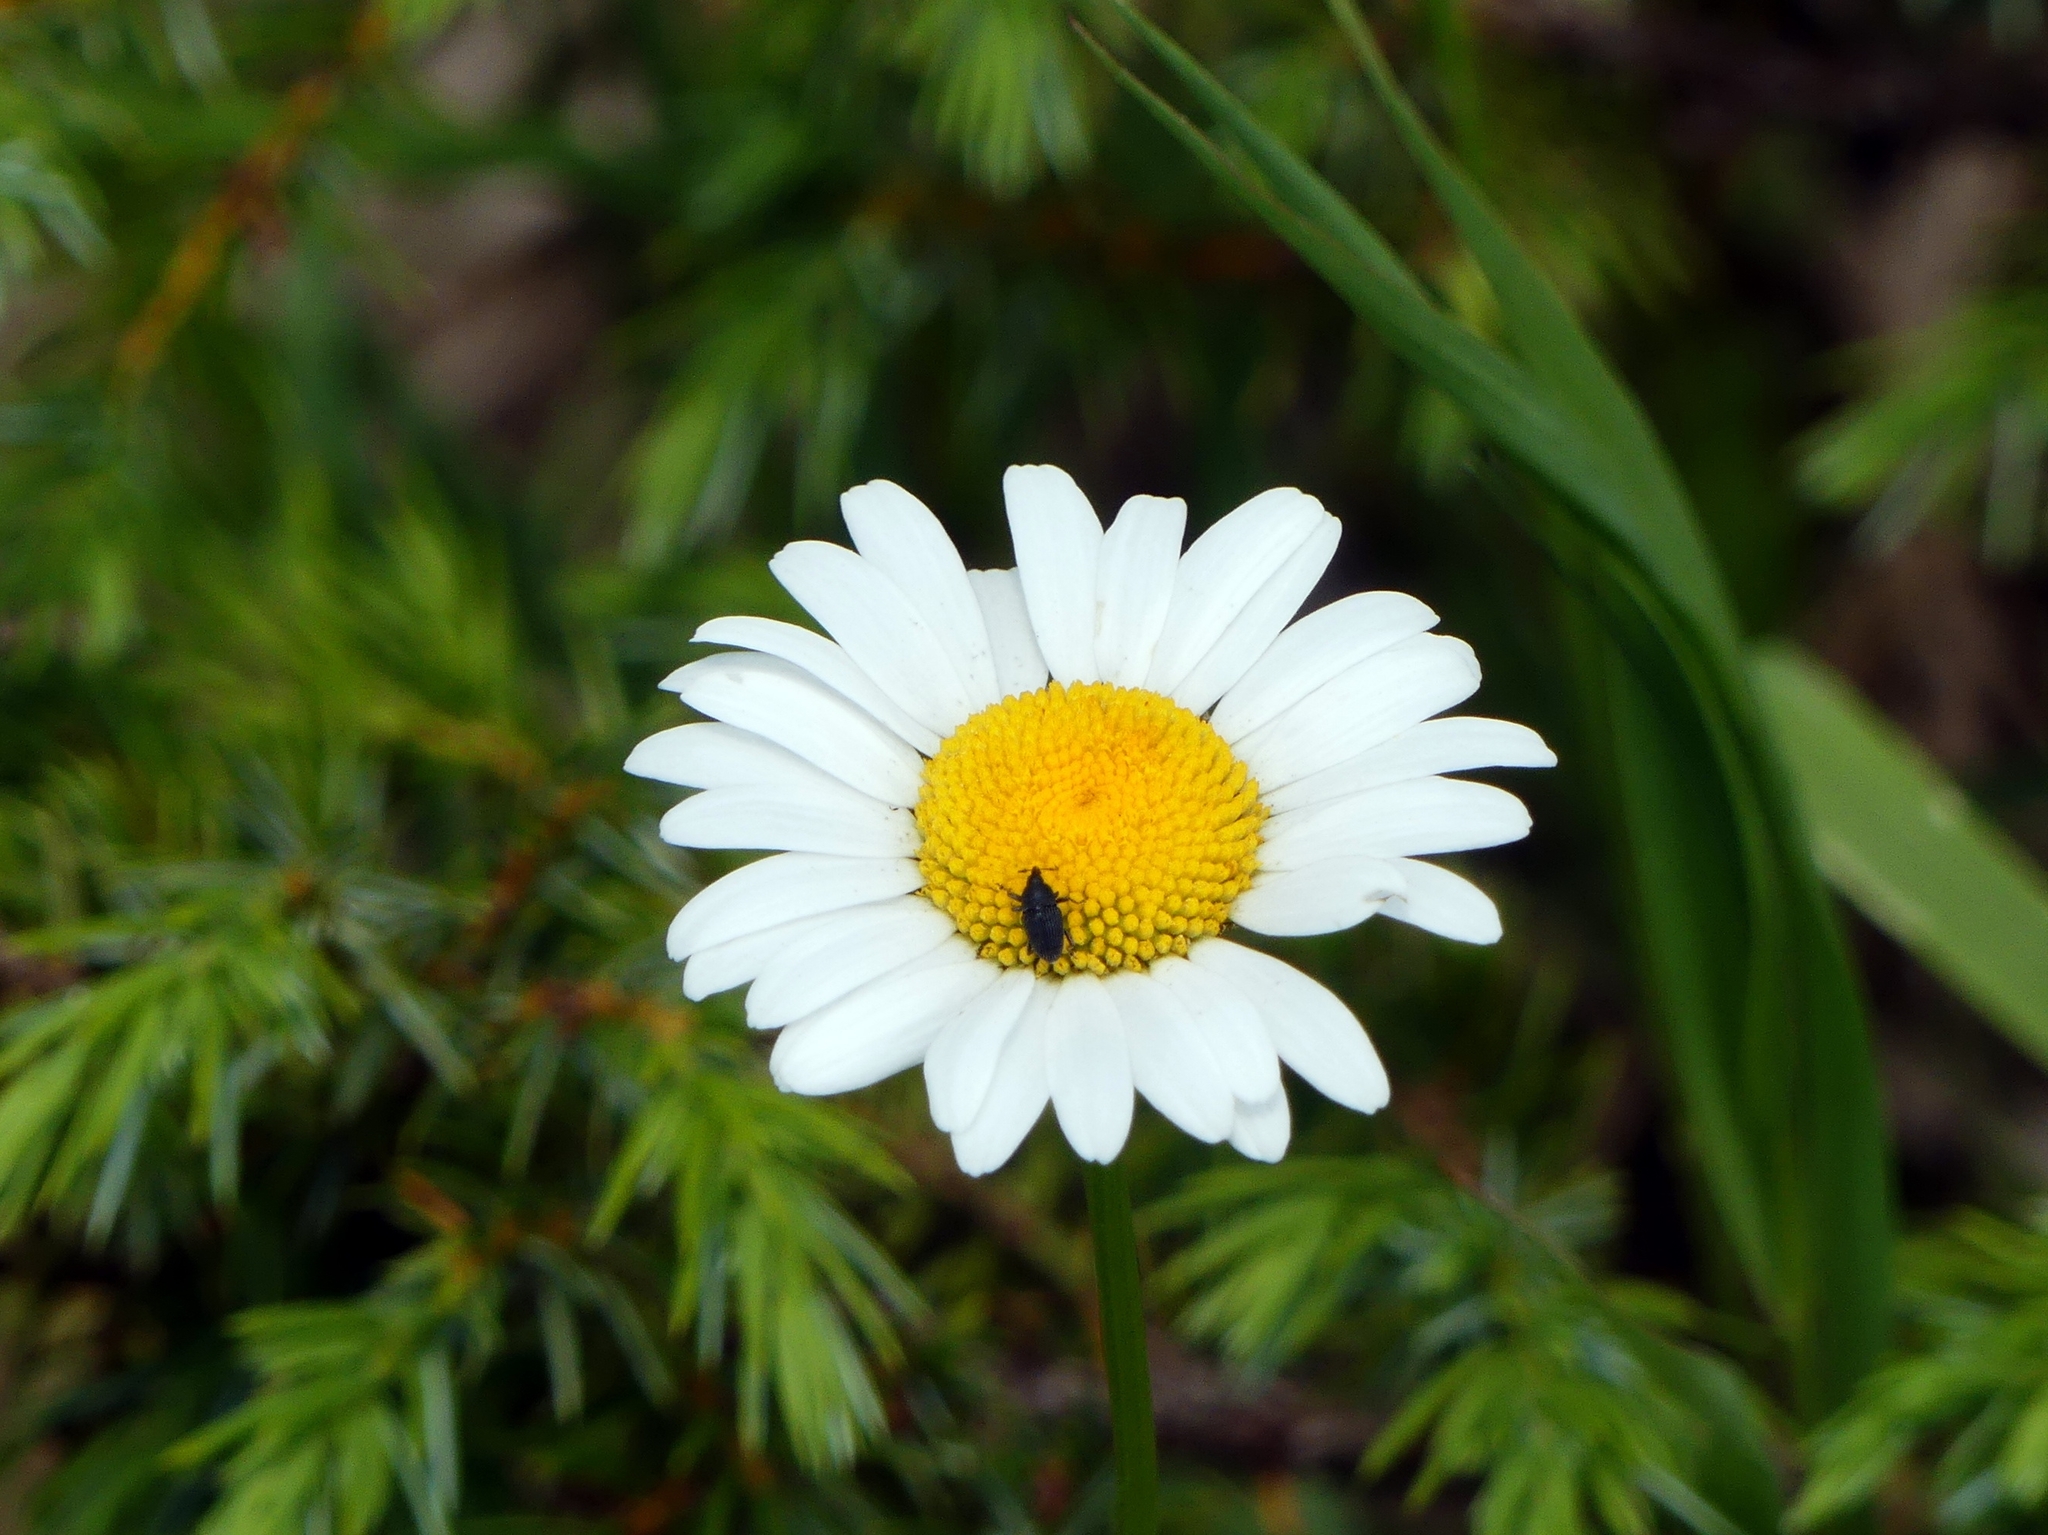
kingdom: Plantae
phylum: Tracheophyta
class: Magnoliopsida
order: Asterales
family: Asteraceae
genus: Leucanthemum
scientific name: Leucanthemum vulgare
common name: Oxeye daisy
